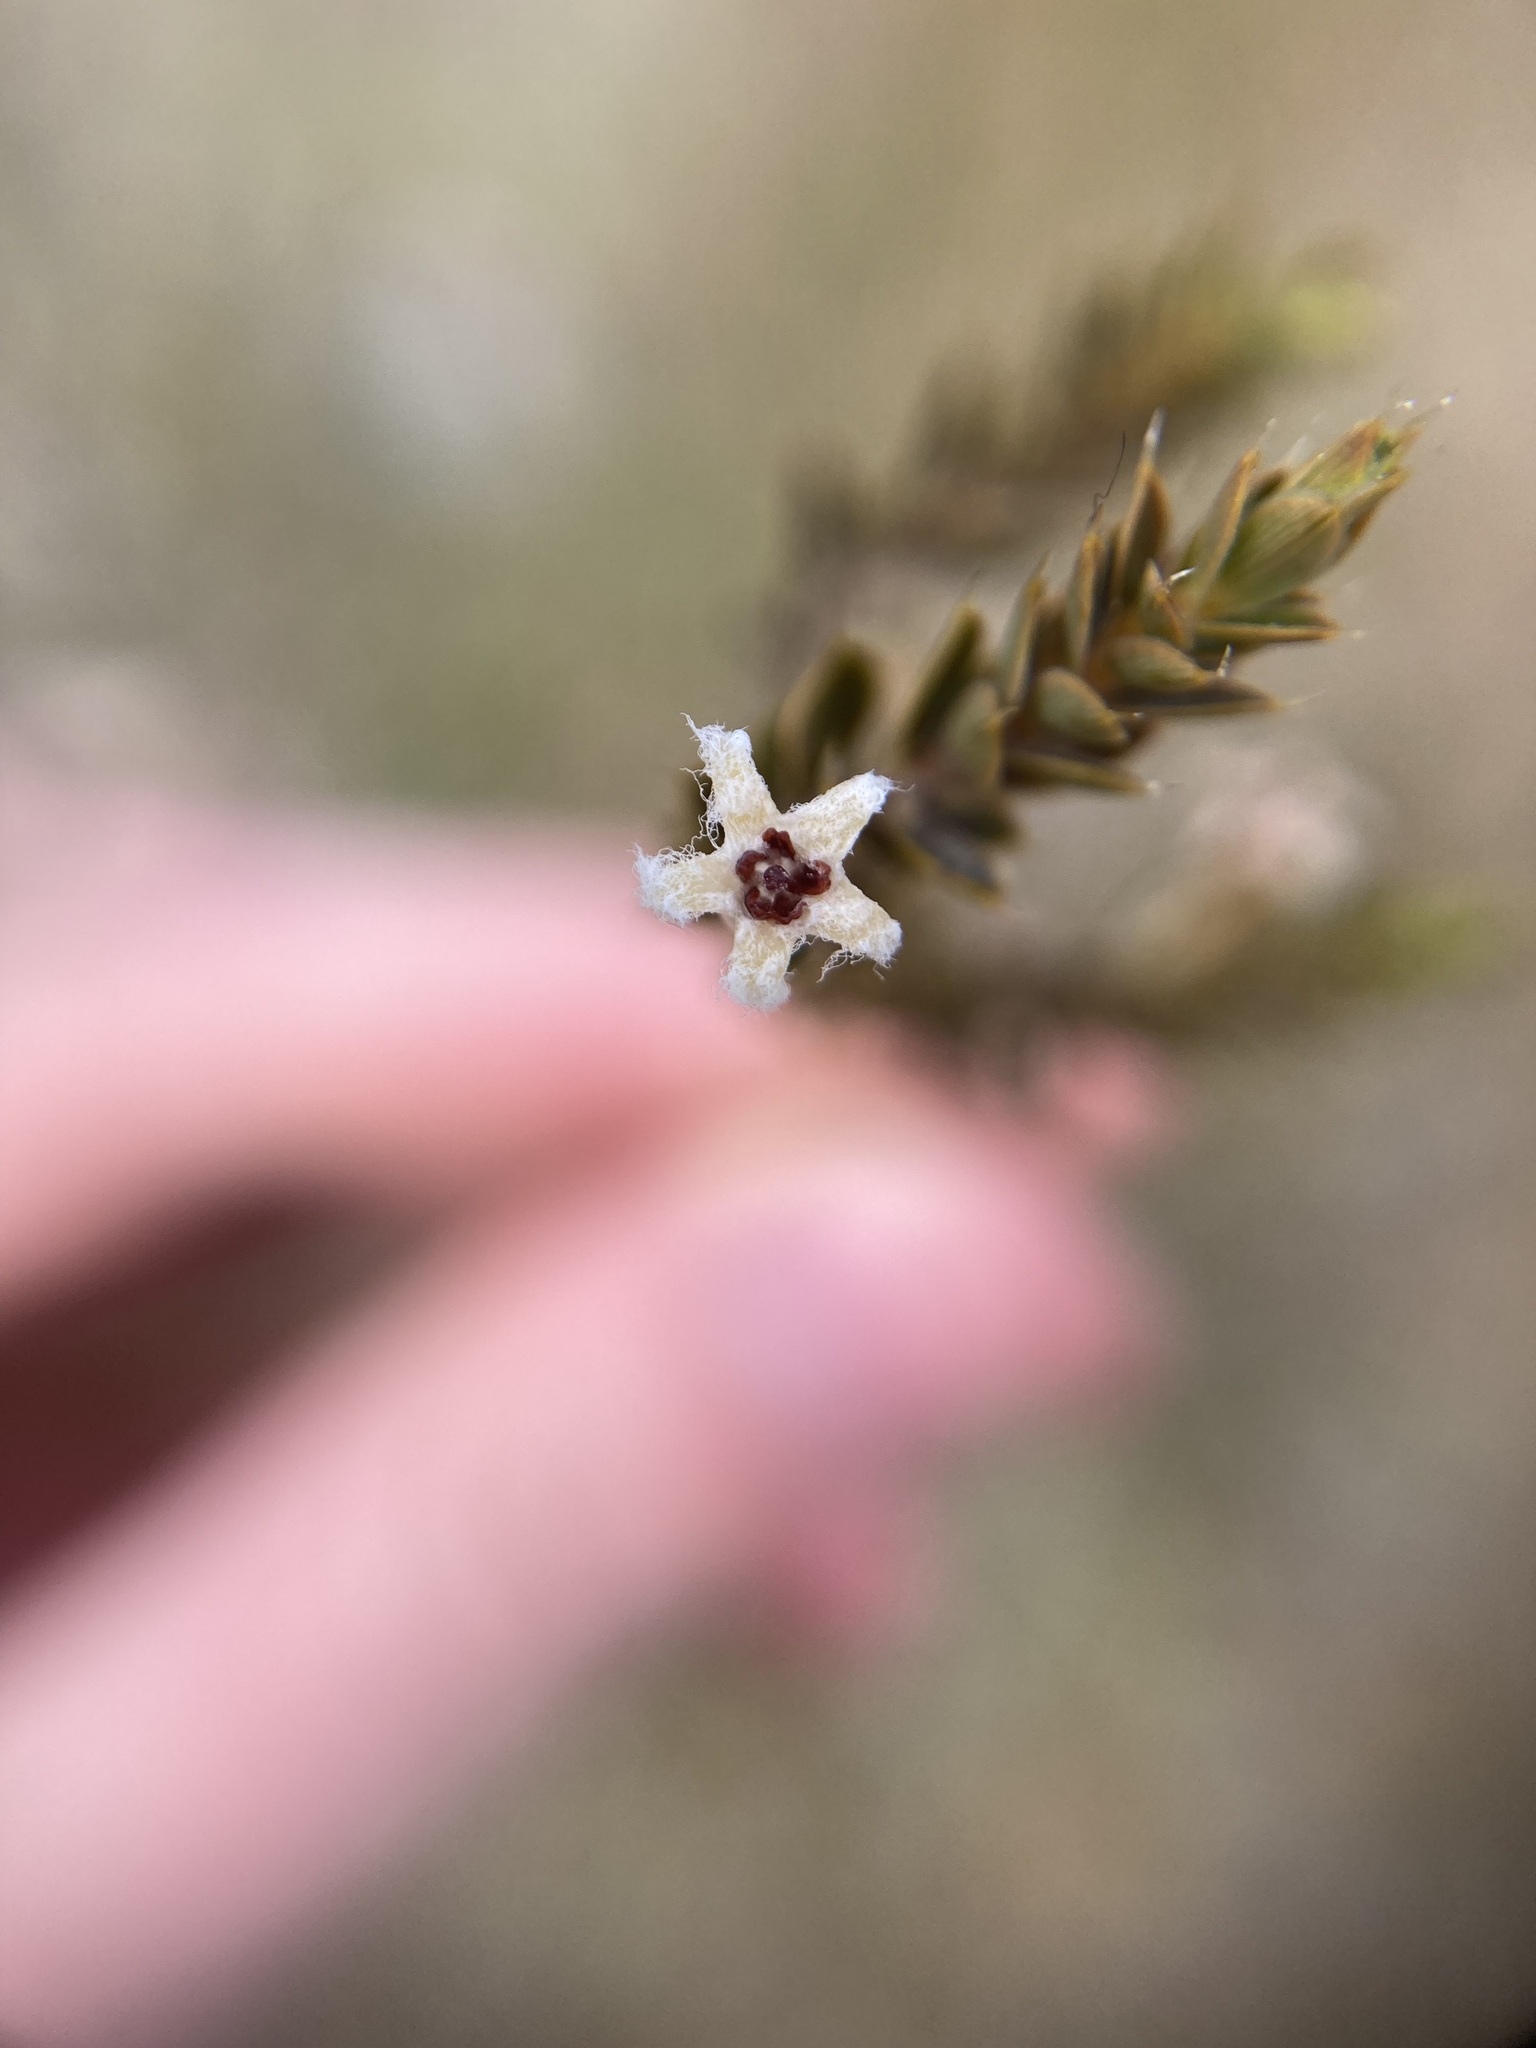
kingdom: Plantae
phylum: Tracheophyta
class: Magnoliopsida
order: Ericales
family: Ericaceae
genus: Styphelia
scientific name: Styphelia nesophila
